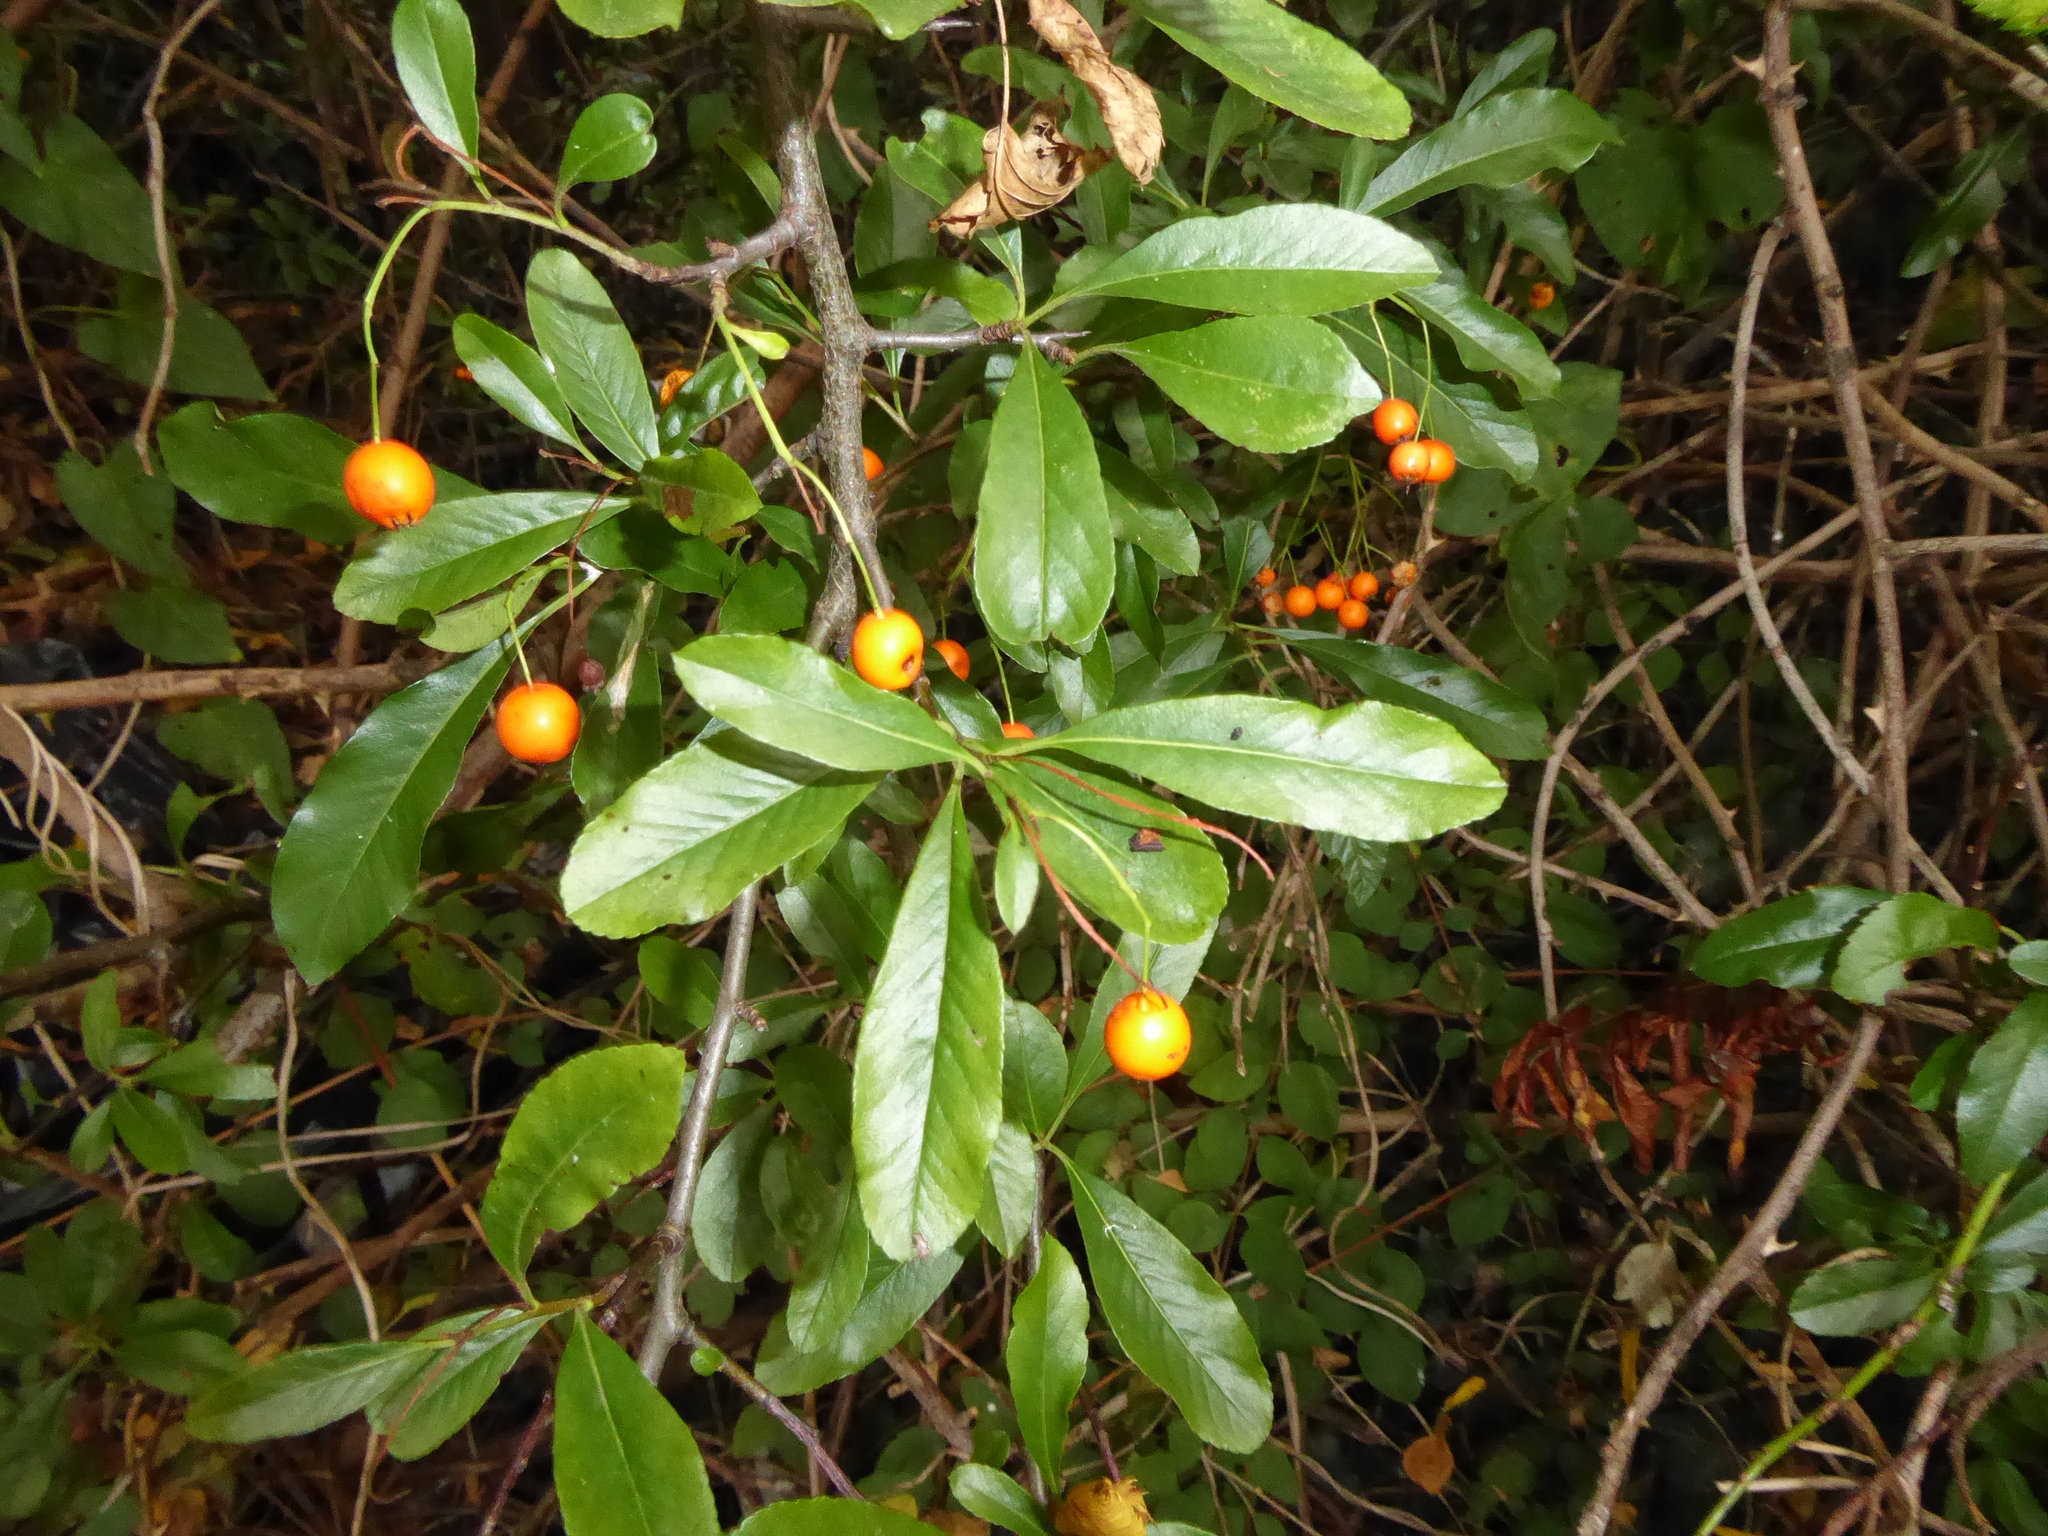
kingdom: Plantae
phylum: Tracheophyta
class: Magnoliopsida
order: Rosales
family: Rosaceae
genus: Pyracantha
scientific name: Pyracantha coccinea
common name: Firethorn
